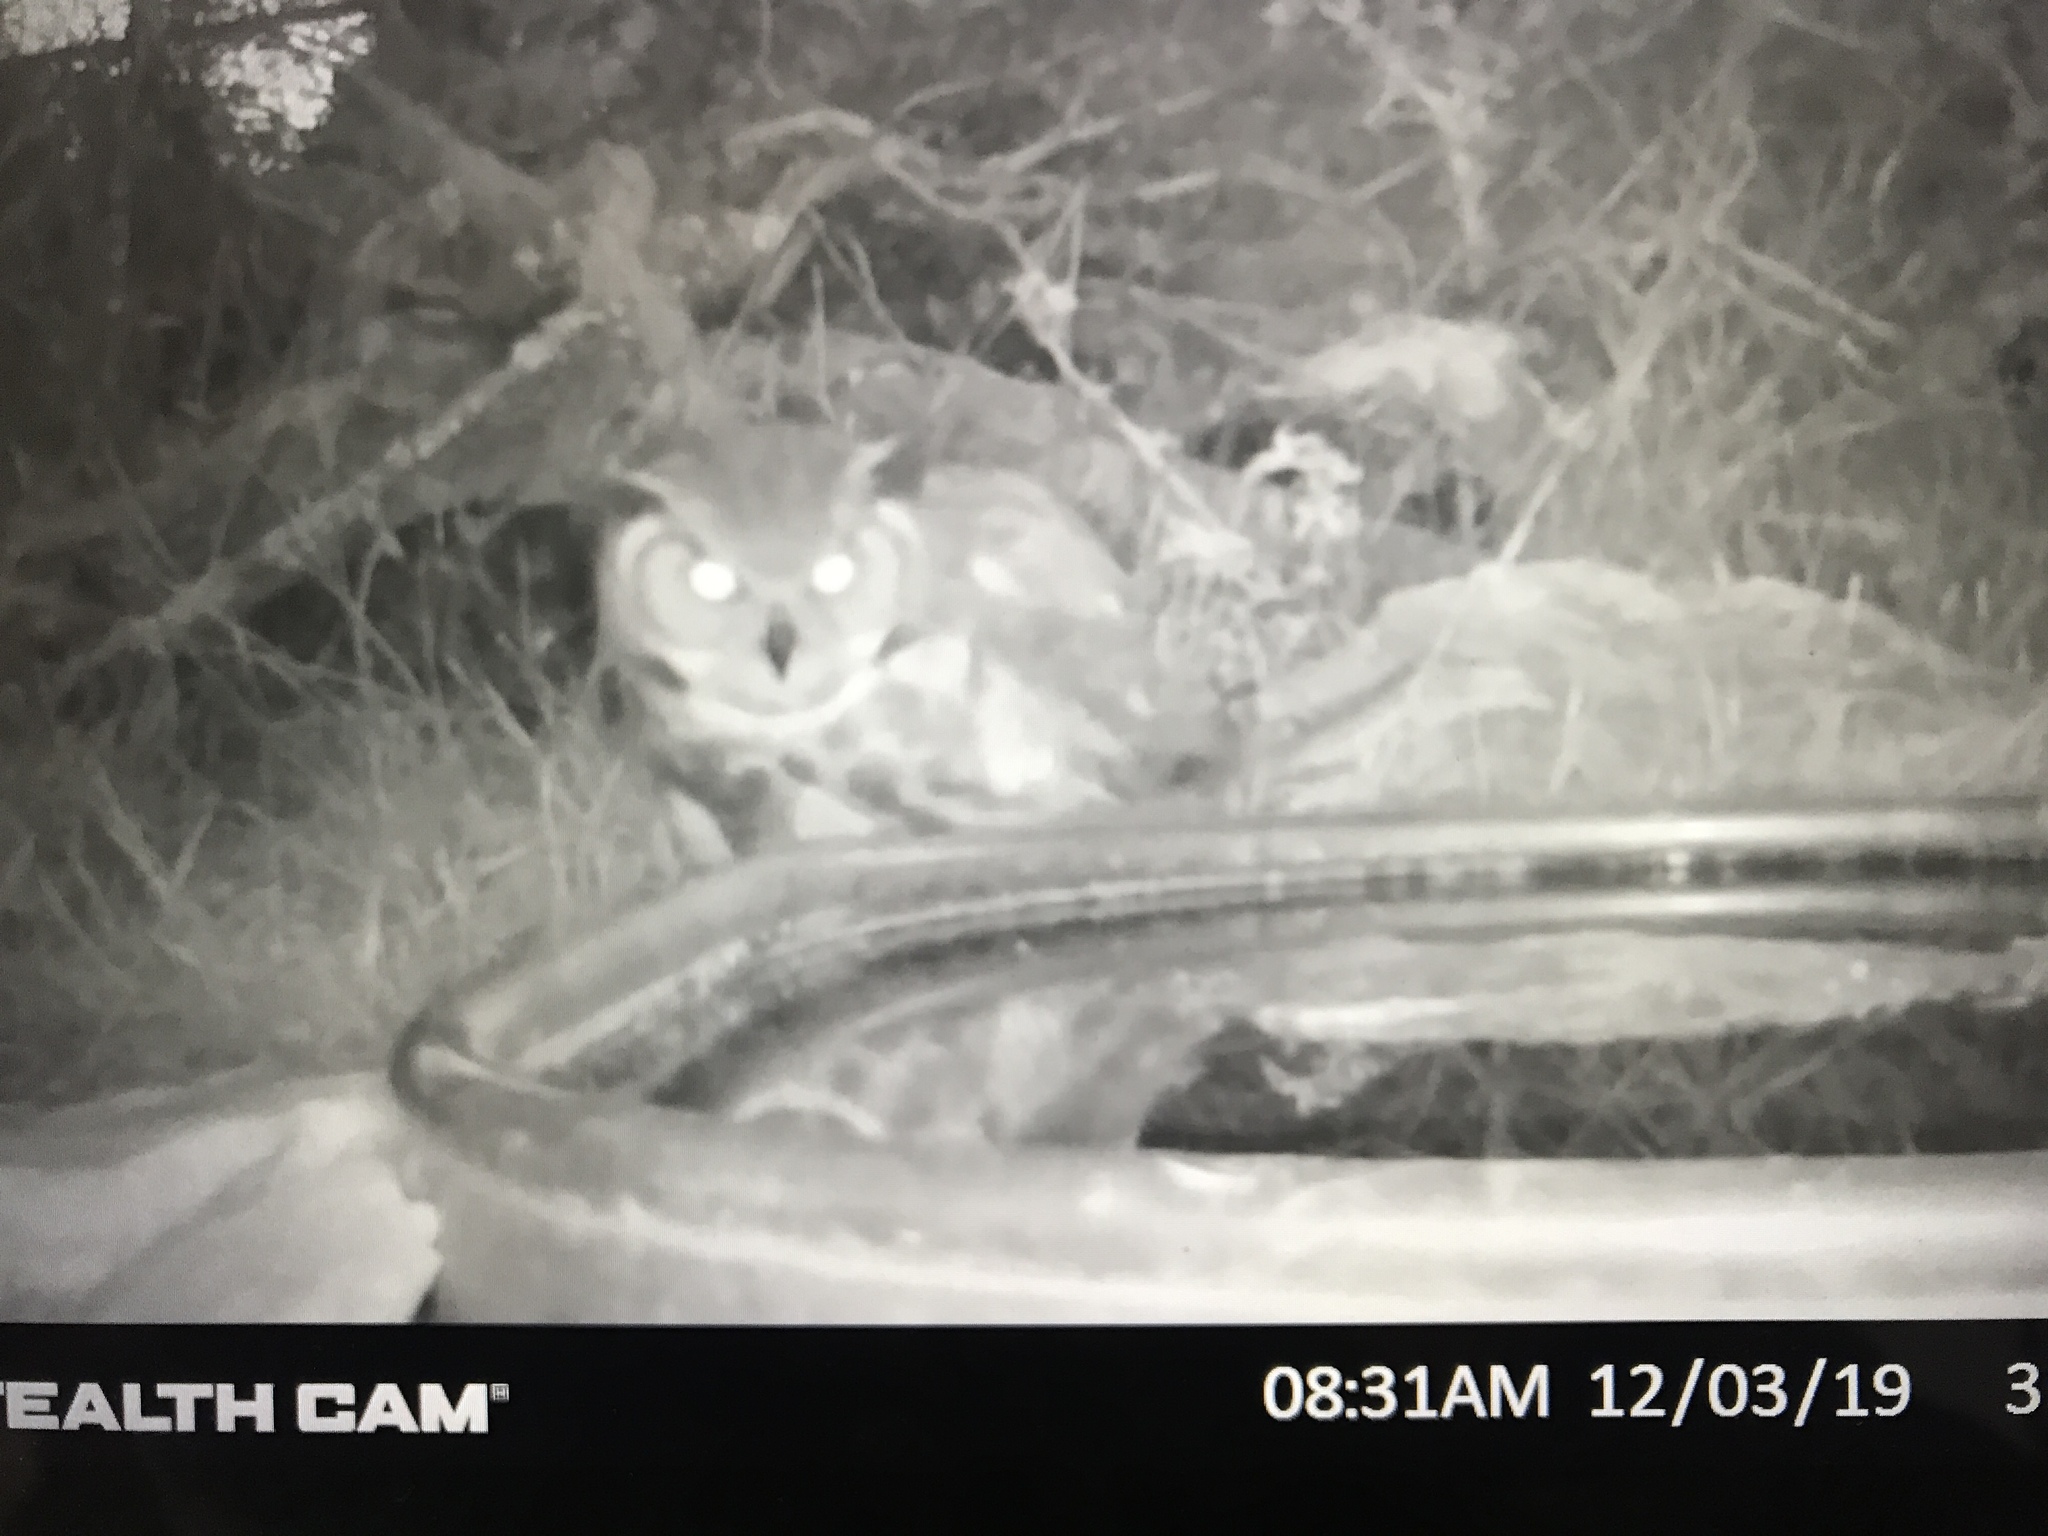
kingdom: Animalia
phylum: Chordata
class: Aves
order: Strigiformes
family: Strigidae
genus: Bubo
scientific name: Bubo virginianus
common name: Great horned owl
